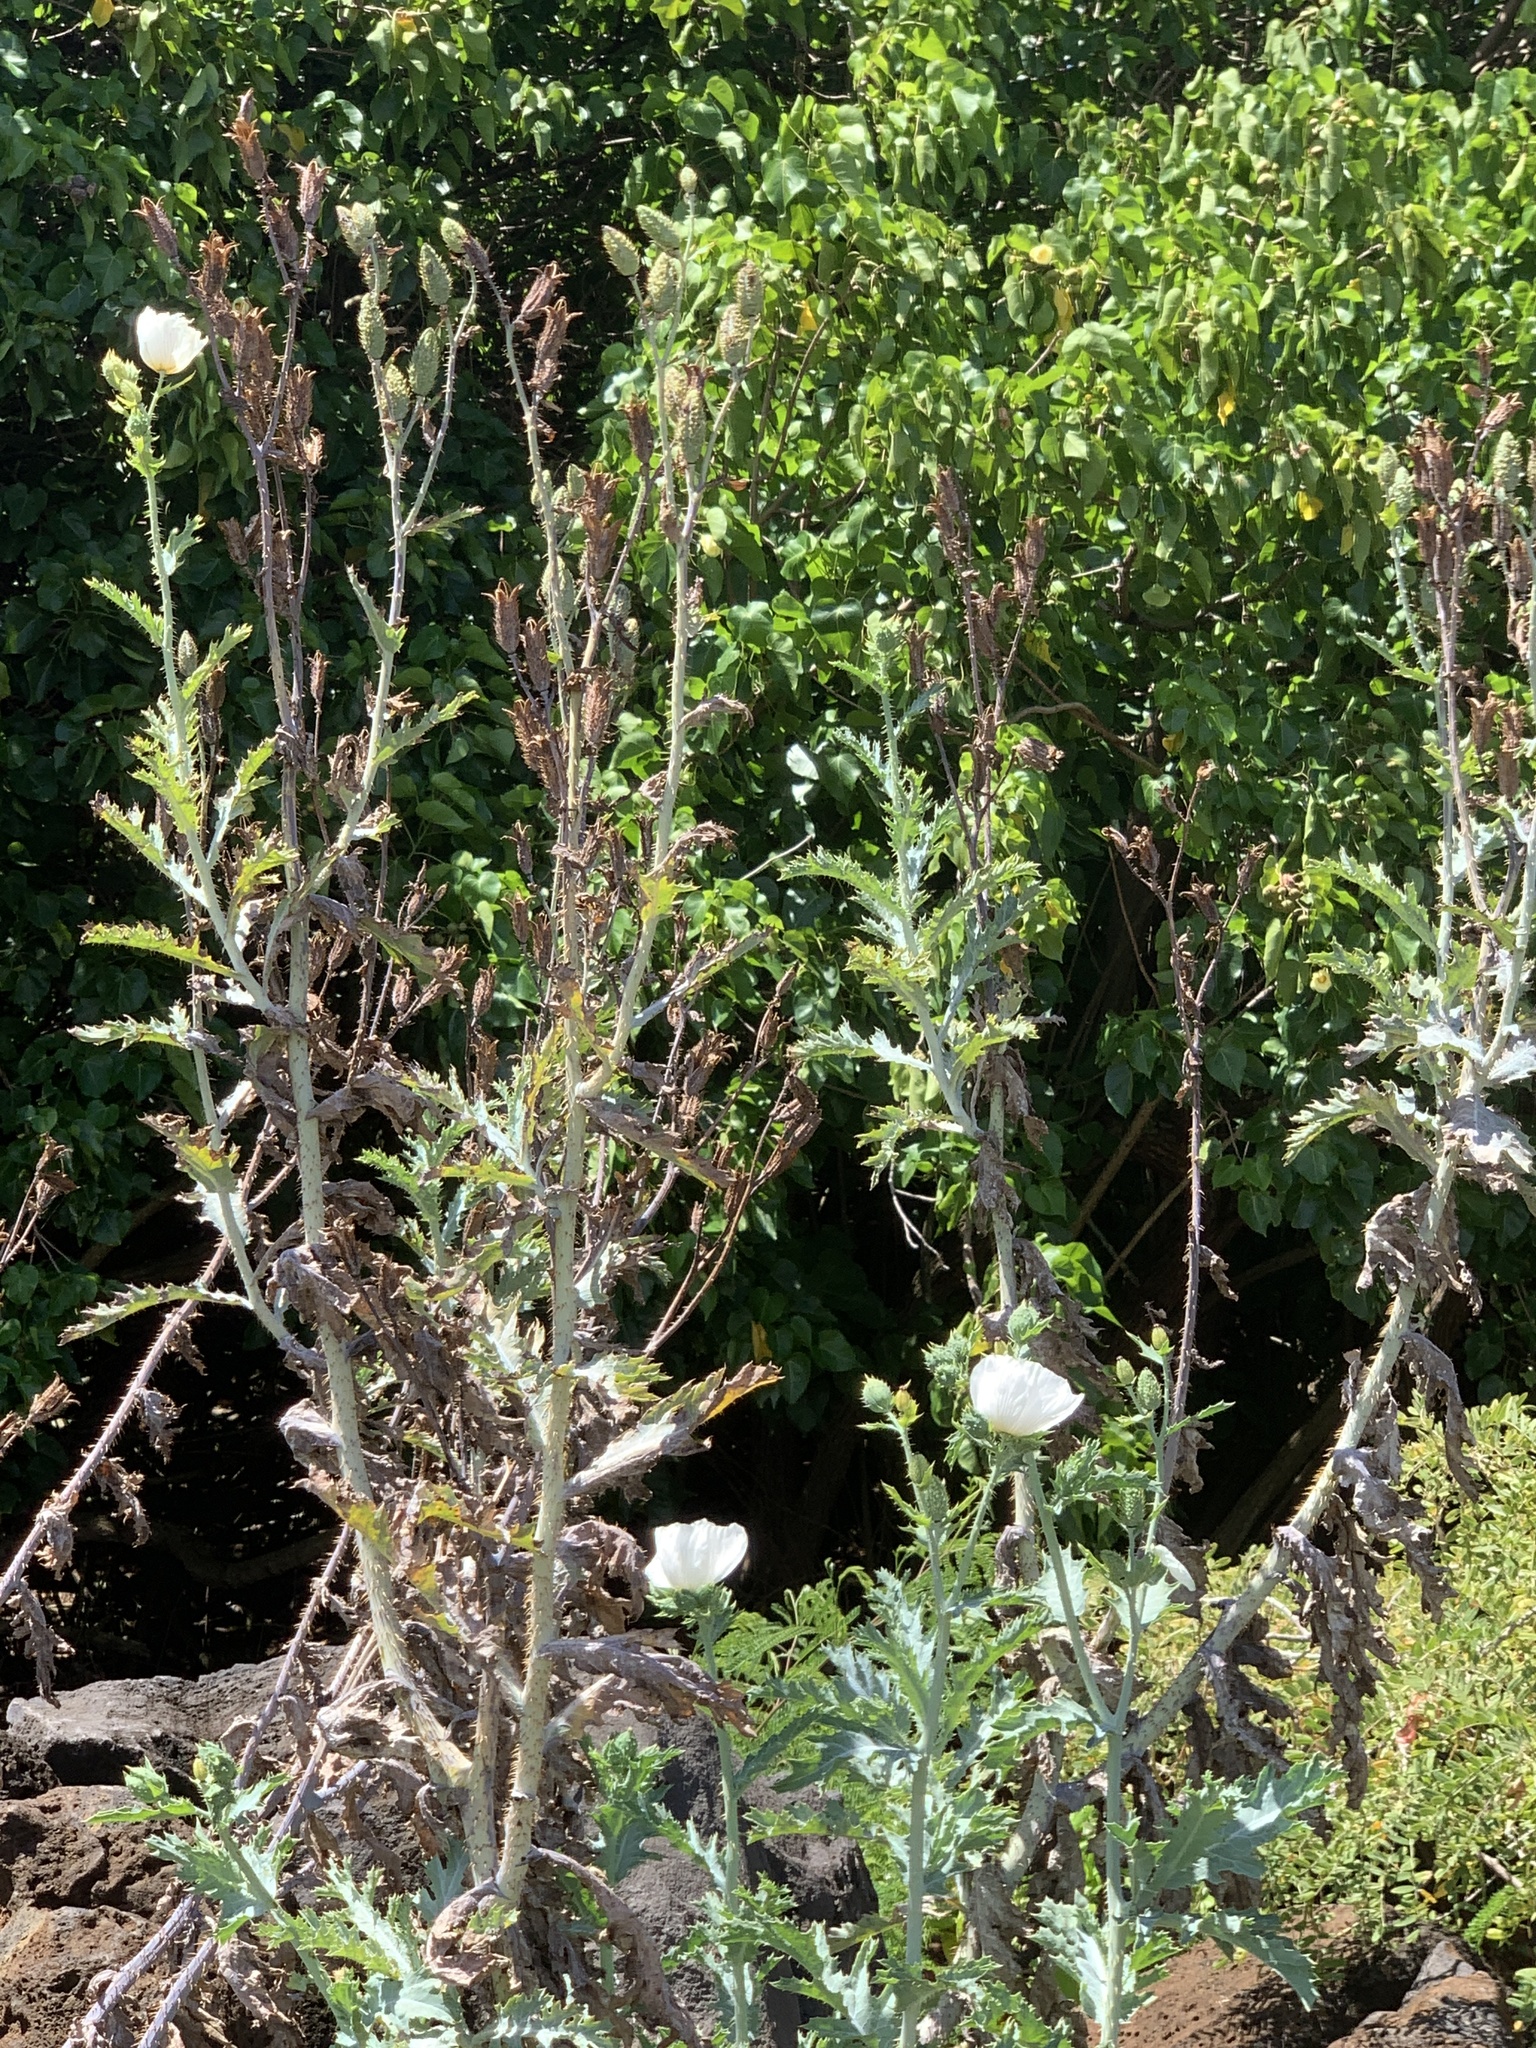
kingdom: Plantae
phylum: Tracheophyta
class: Magnoliopsida
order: Ranunculales
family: Papaveraceae
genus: Argemone
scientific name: Argemone glauca
